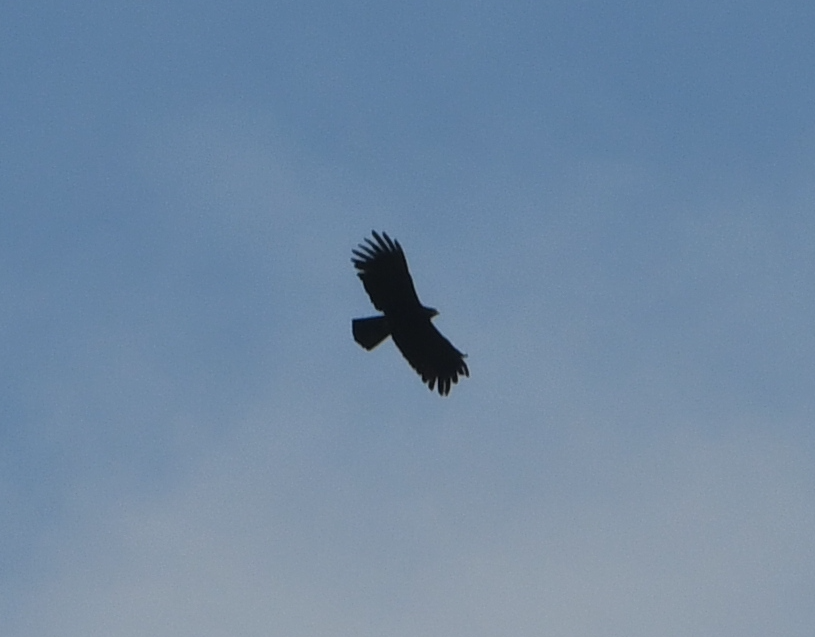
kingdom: Animalia
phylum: Chordata
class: Aves
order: Accipitriformes
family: Accipitridae
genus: Ictinaetus
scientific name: Ictinaetus malayensis
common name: Black eagle
